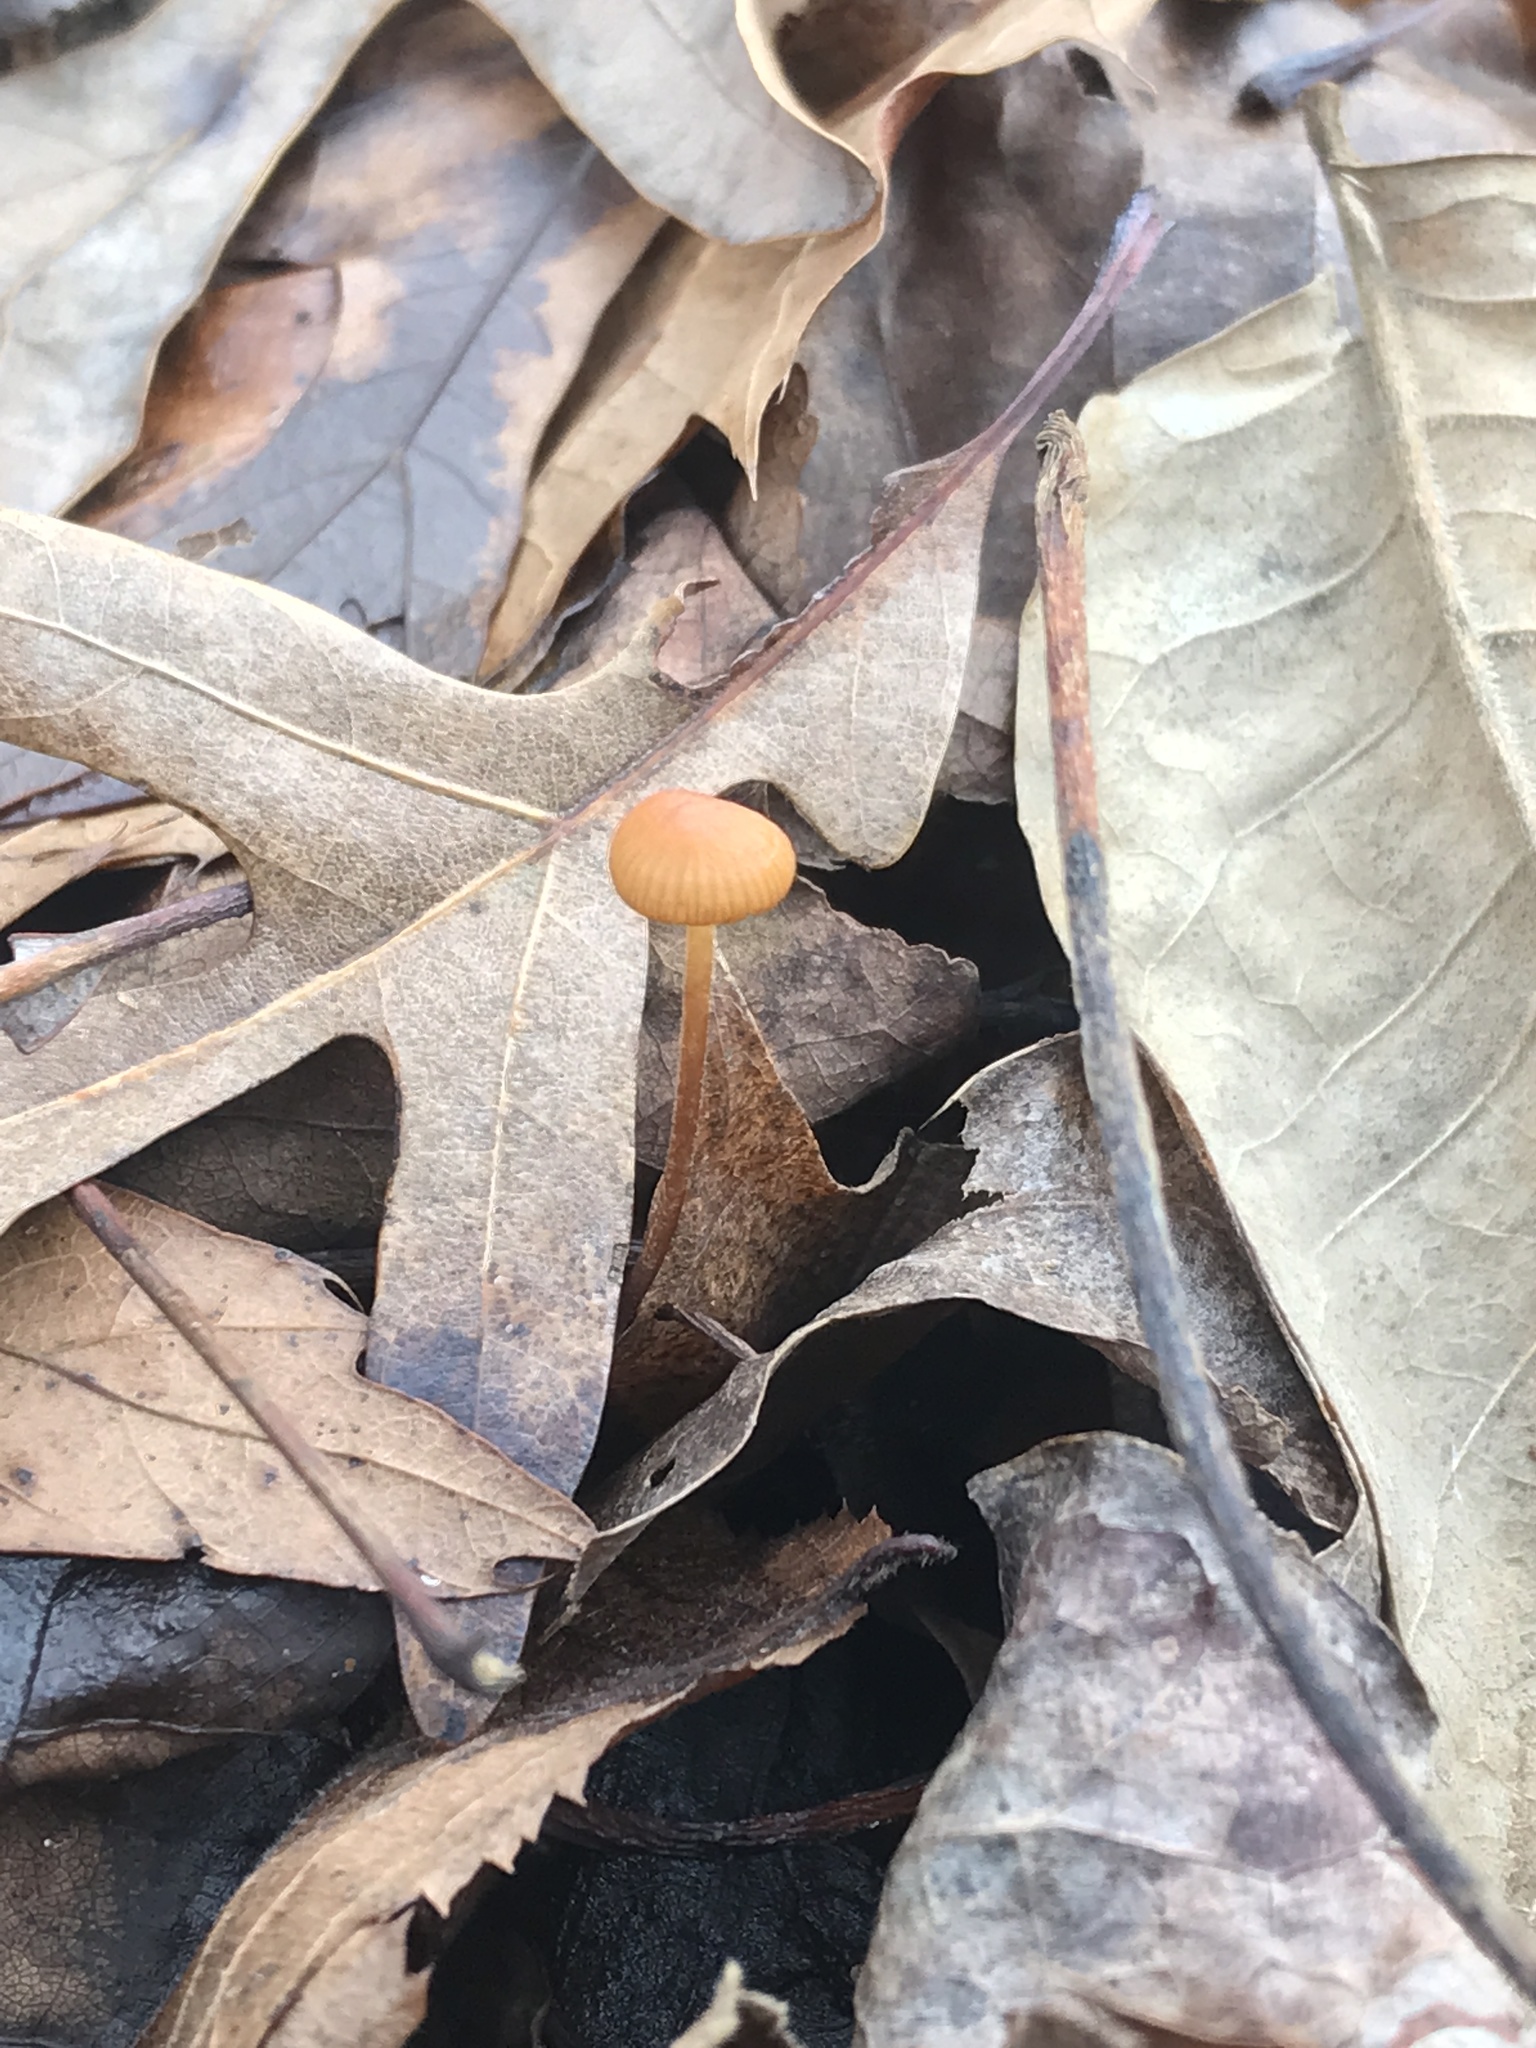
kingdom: Fungi
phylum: Basidiomycota
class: Agaricomycetes
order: Agaricales
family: Physalacriaceae
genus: Rhizomarasmius
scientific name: Rhizomarasmius pyrrhocephalus
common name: Hairy long stem marasmius
